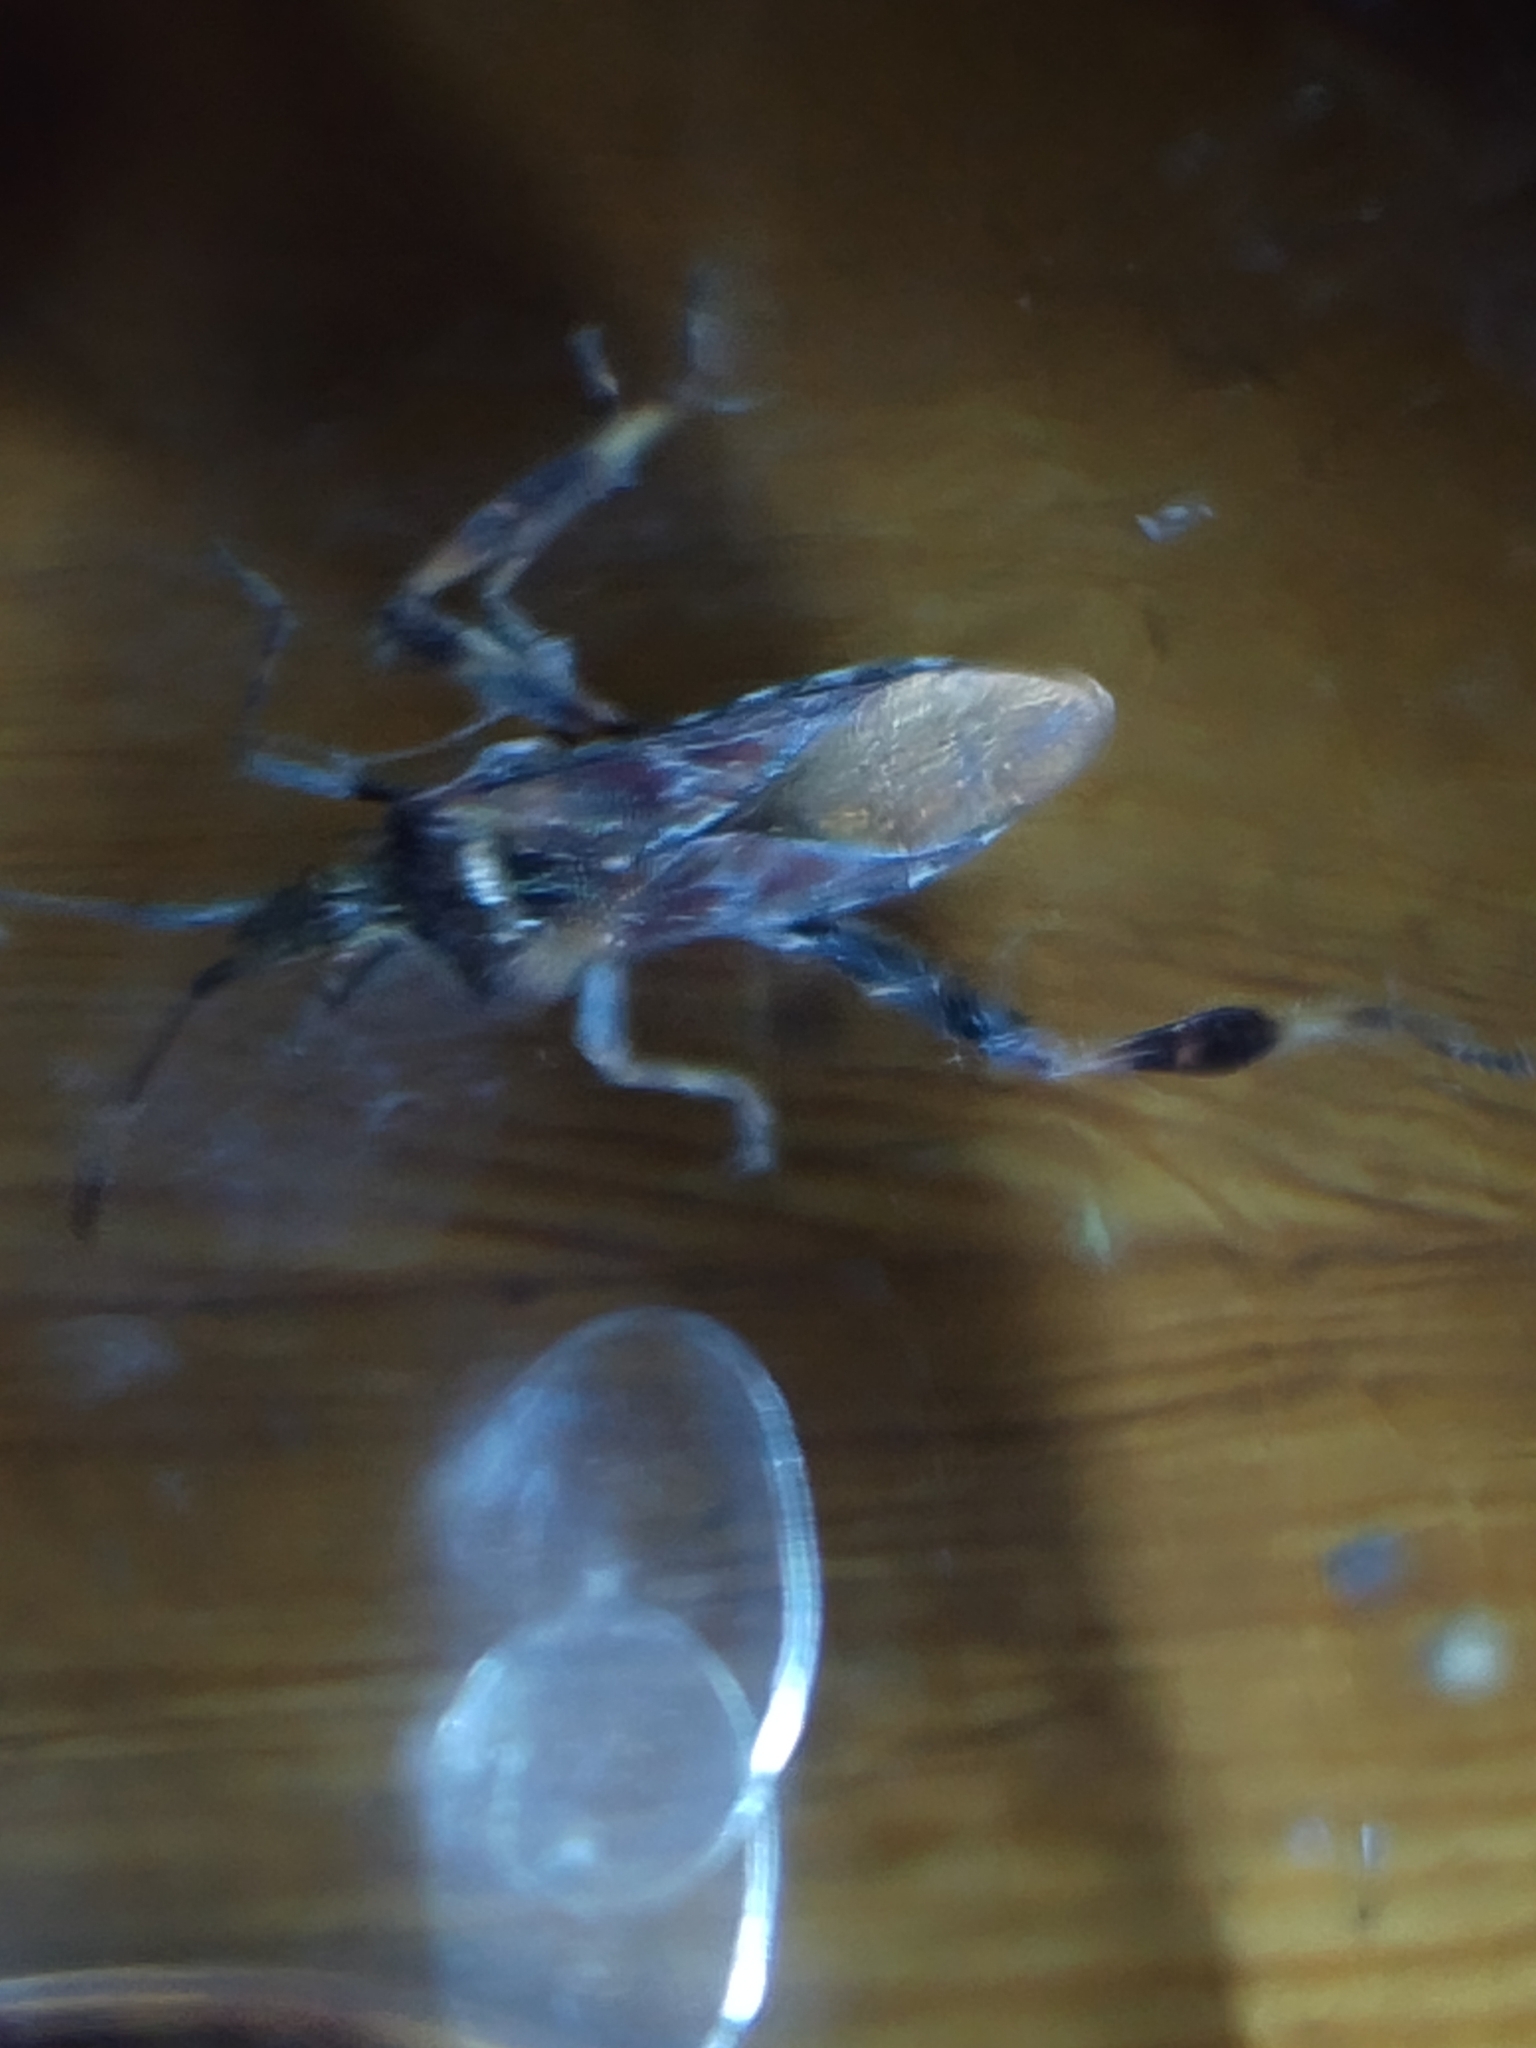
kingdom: Animalia
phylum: Arthropoda
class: Insecta
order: Hemiptera
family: Coreidae
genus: Leptoglossus
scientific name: Leptoglossus occidentalis
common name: Western conifer-seed bug
